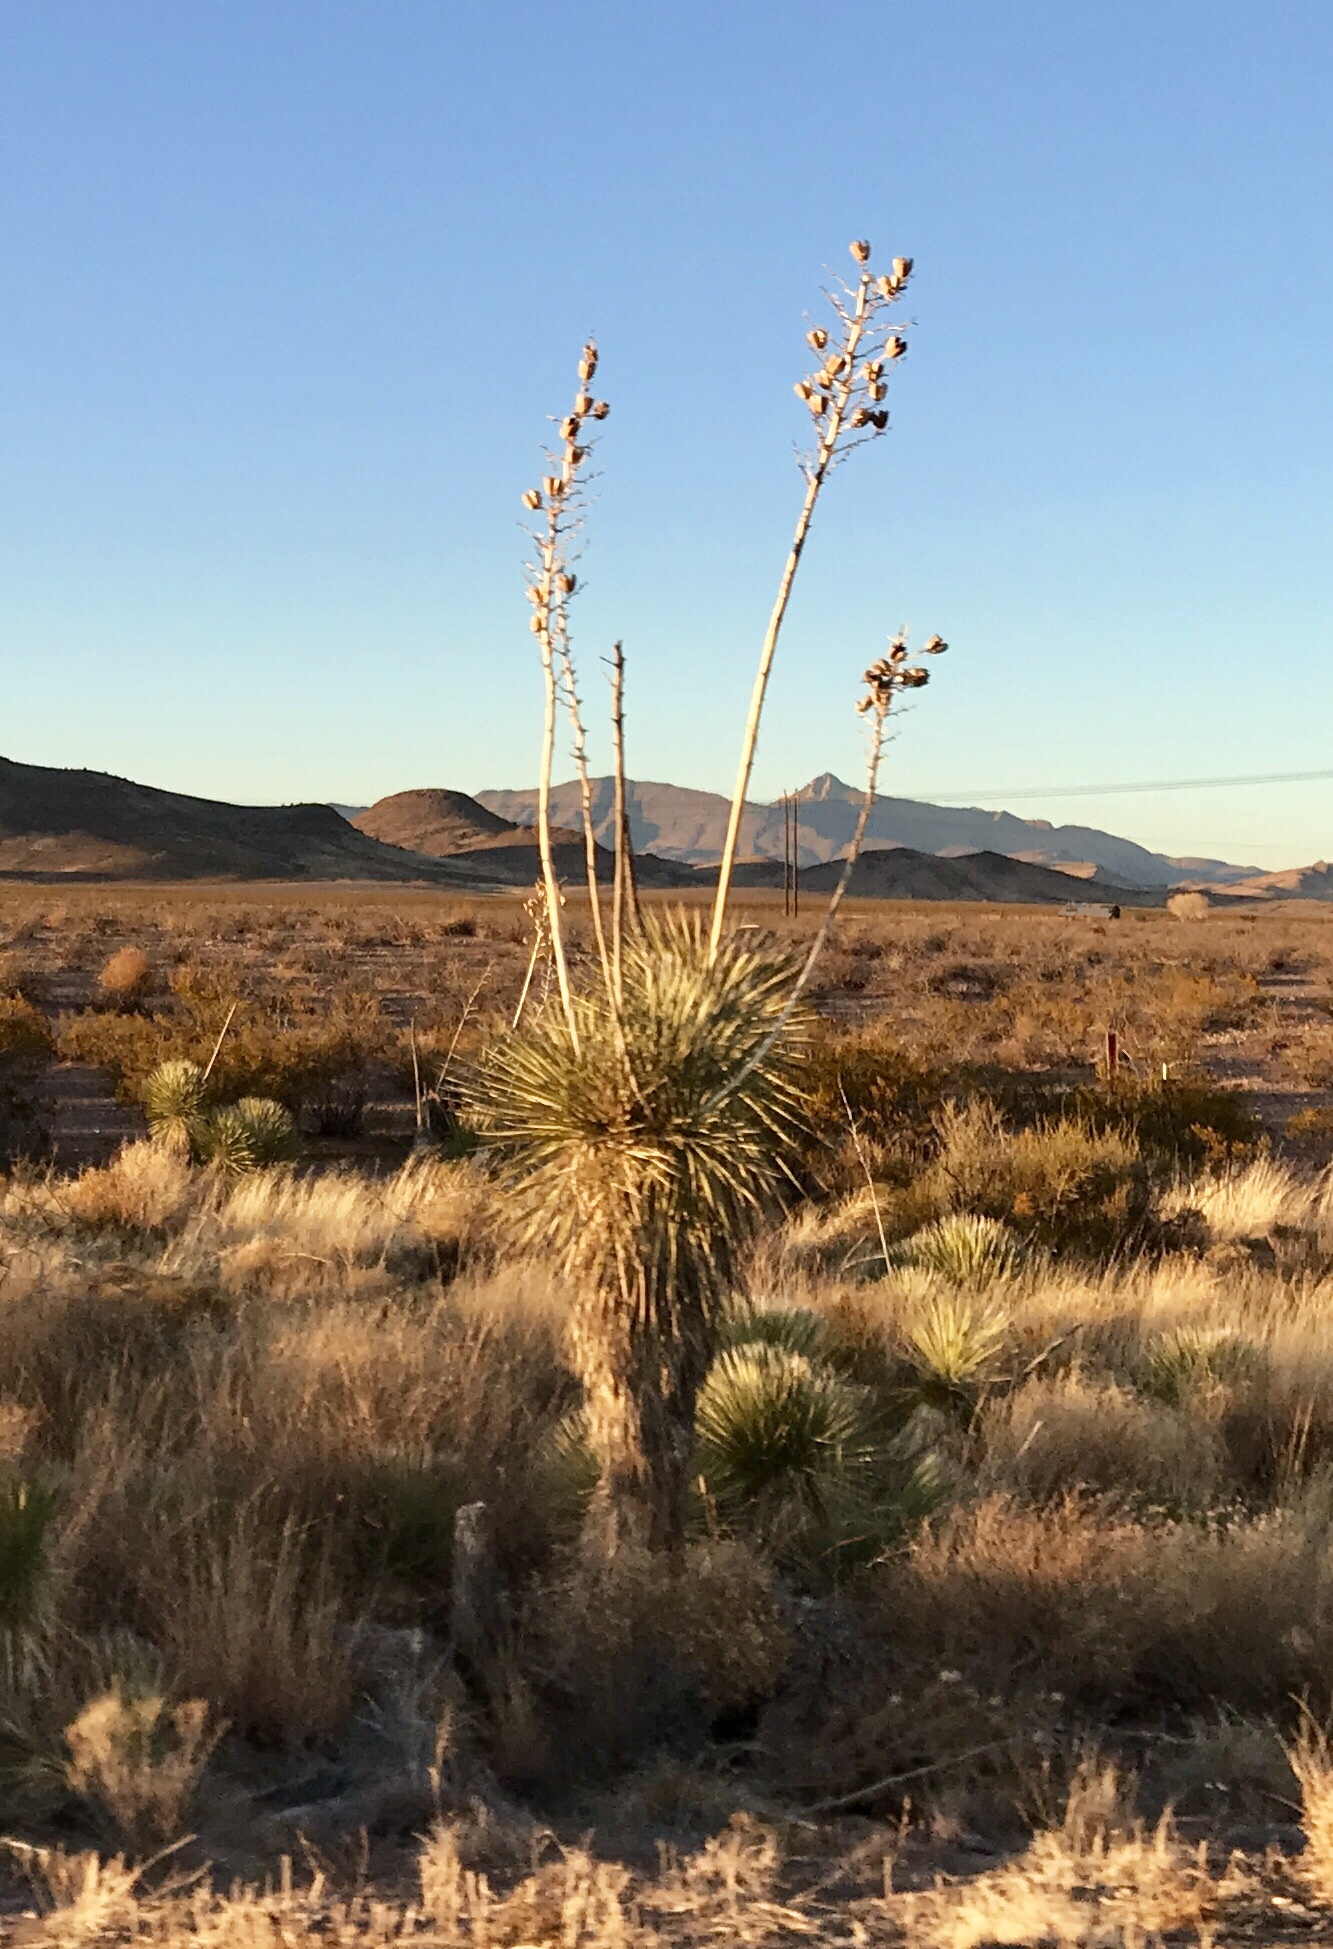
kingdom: Plantae
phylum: Tracheophyta
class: Liliopsida
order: Asparagales
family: Asparagaceae
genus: Yucca
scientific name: Yucca elata
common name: Palmella
